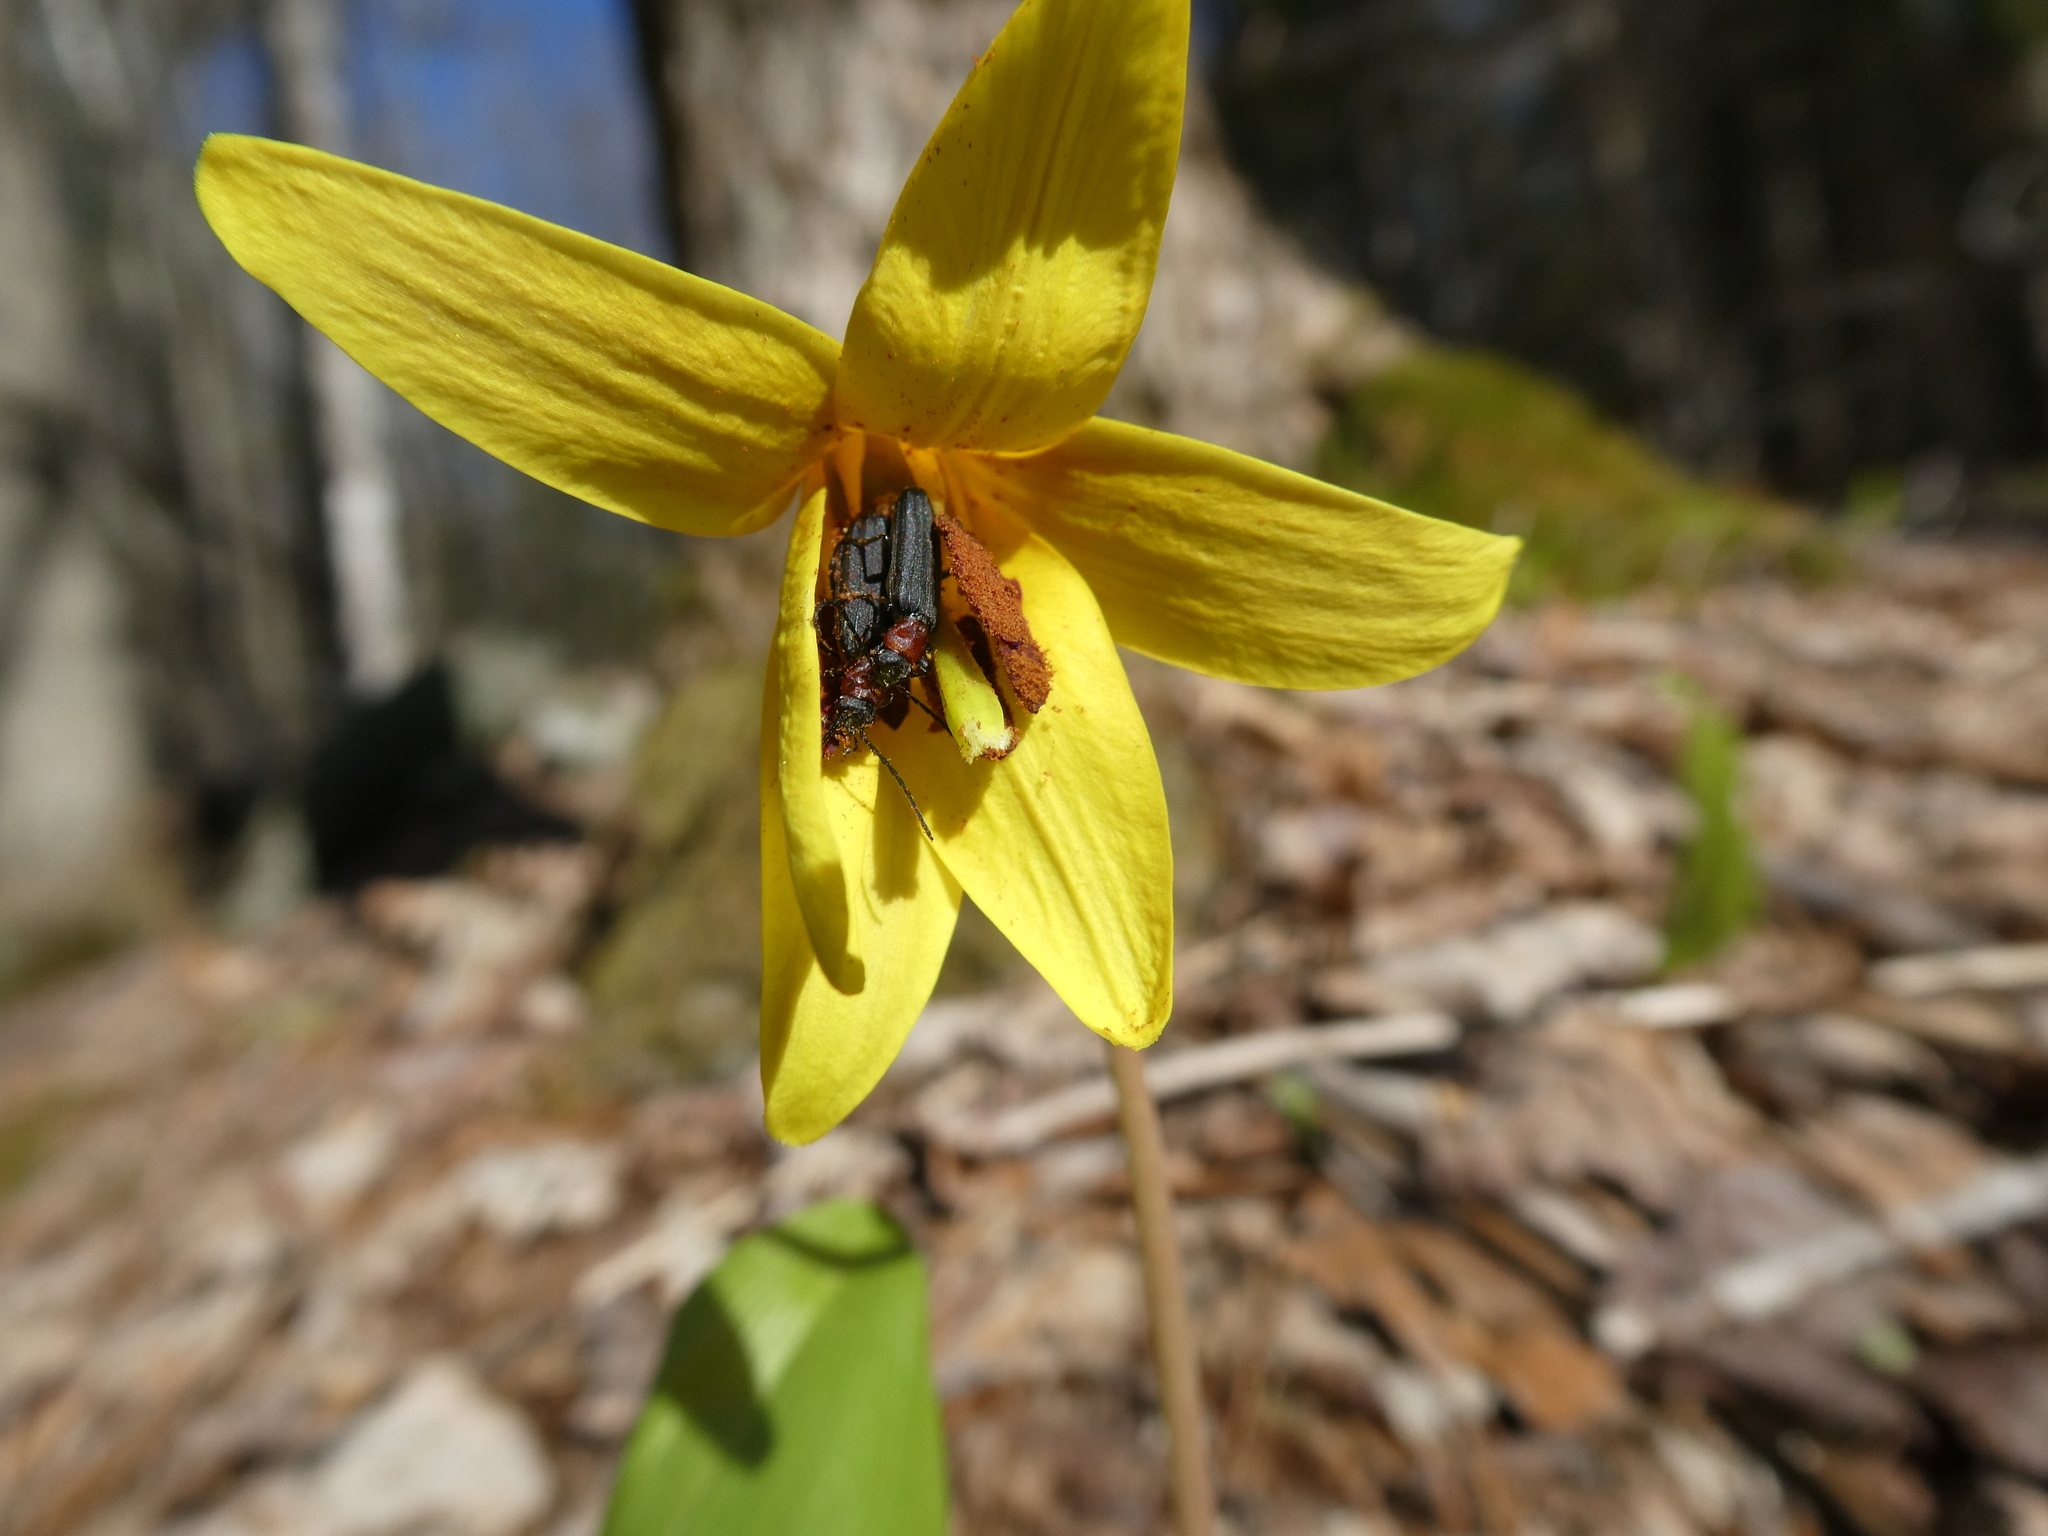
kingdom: Animalia
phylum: Arthropoda
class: Insecta
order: Coleoptera
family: Oedemeridae
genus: Ischnomera
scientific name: Ischnomera
